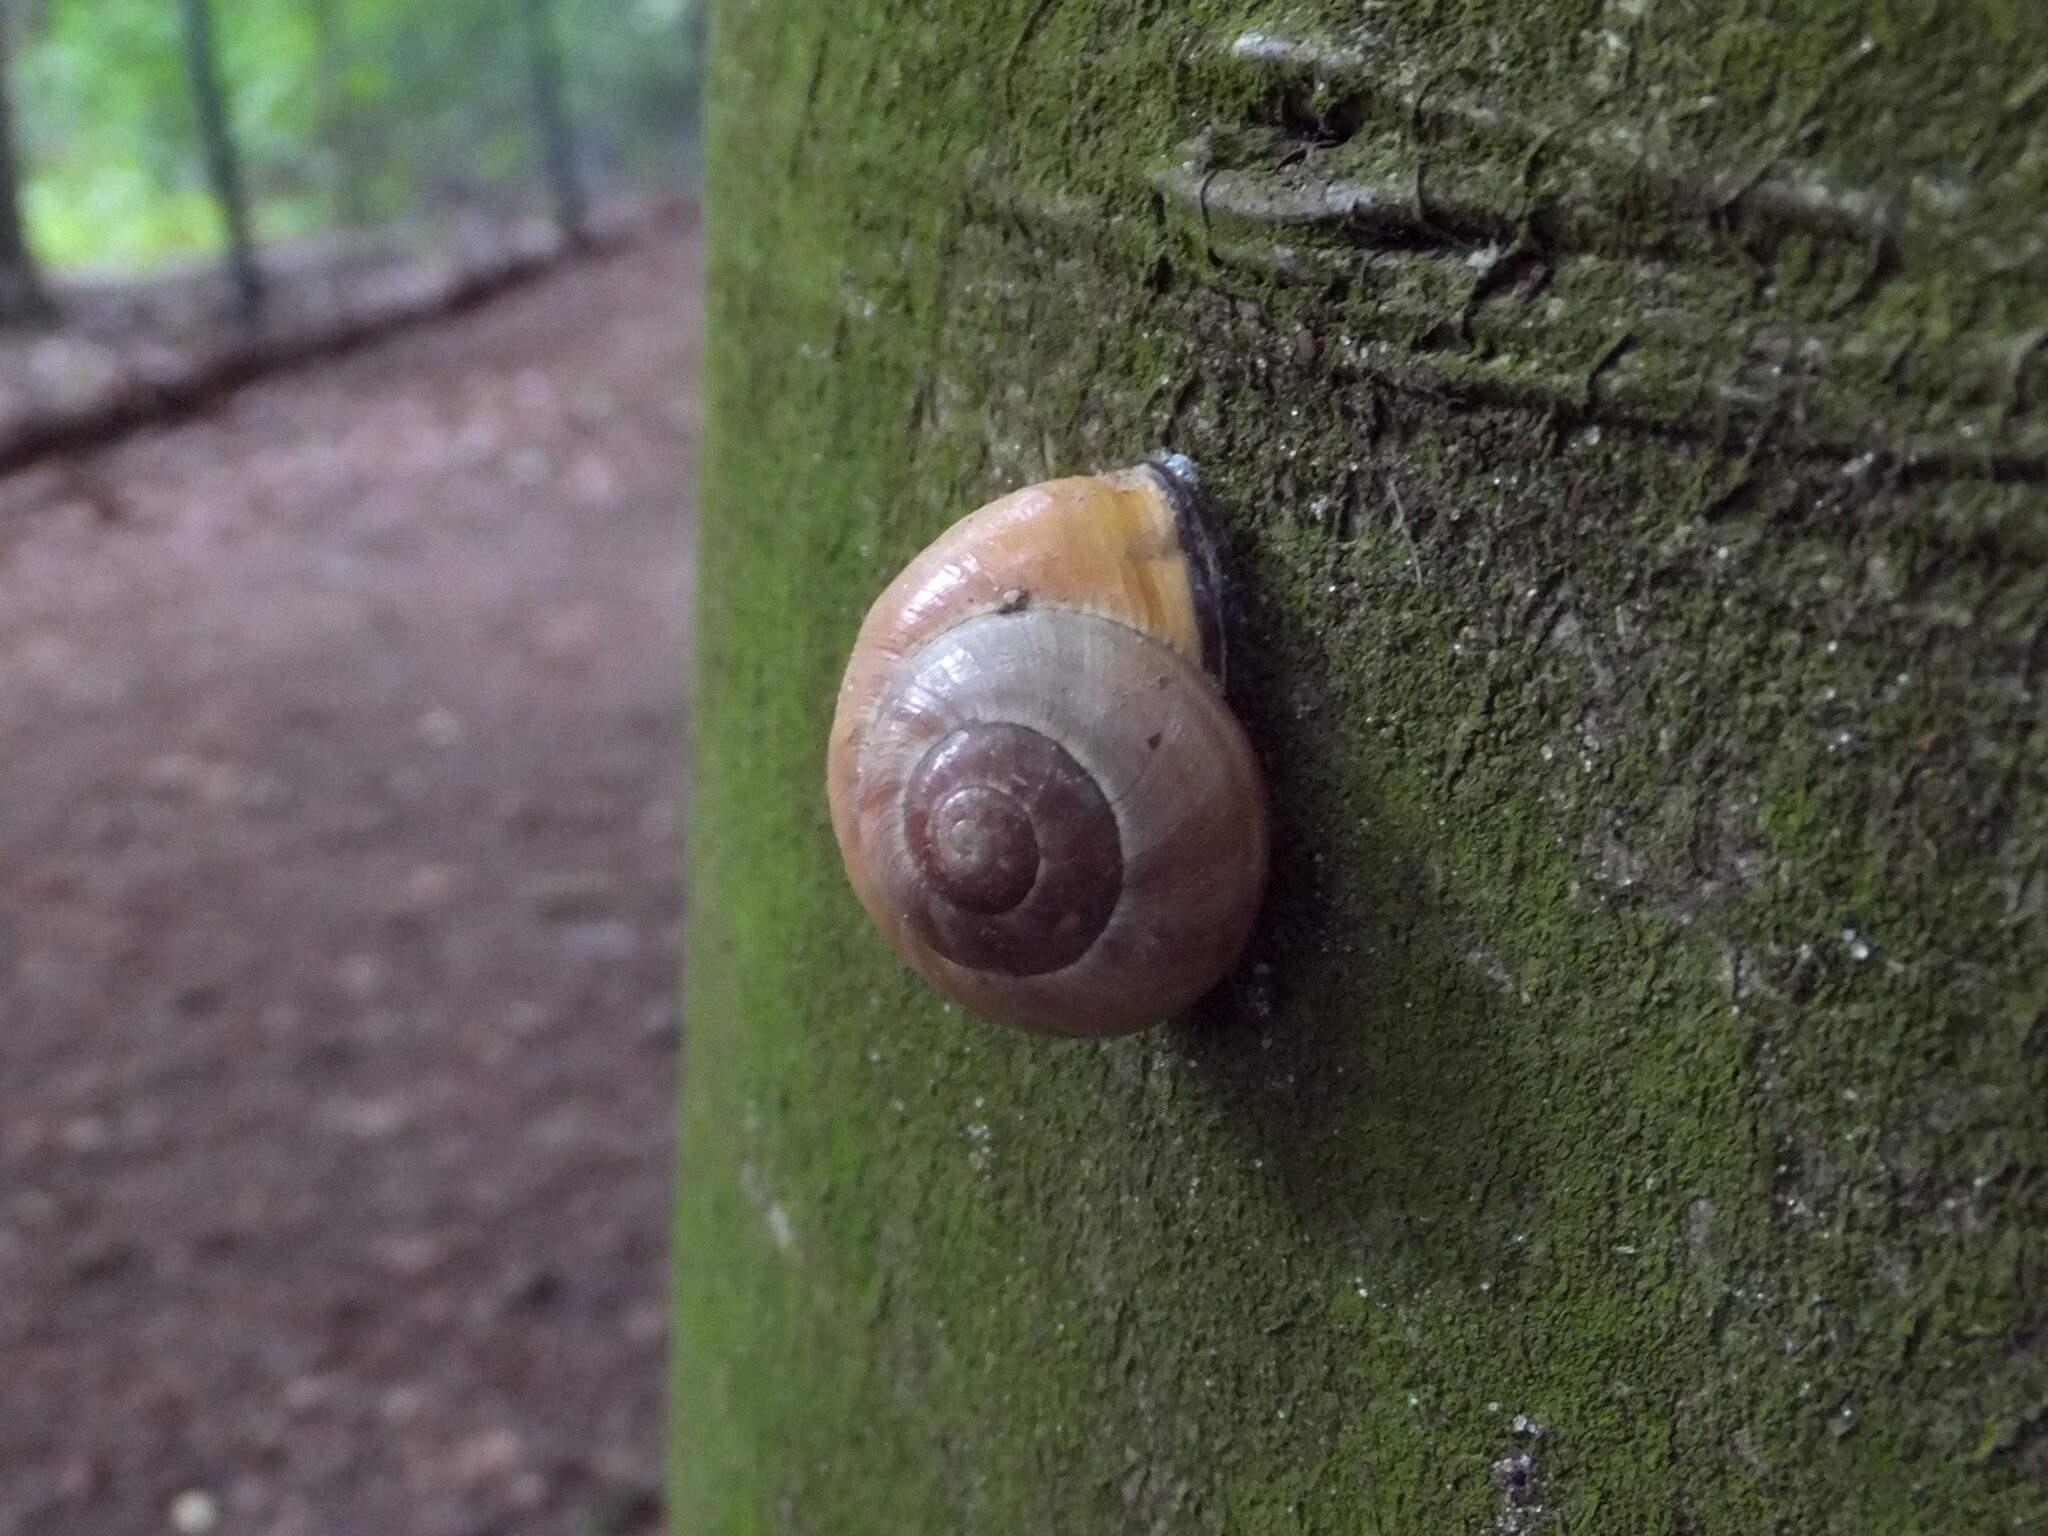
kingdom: Animalia
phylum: Mollusca
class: Gastropoda
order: Stylommatophora
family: Helicidae
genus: Cepaea
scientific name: Cepaea nemoralis
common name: Grovesnail
